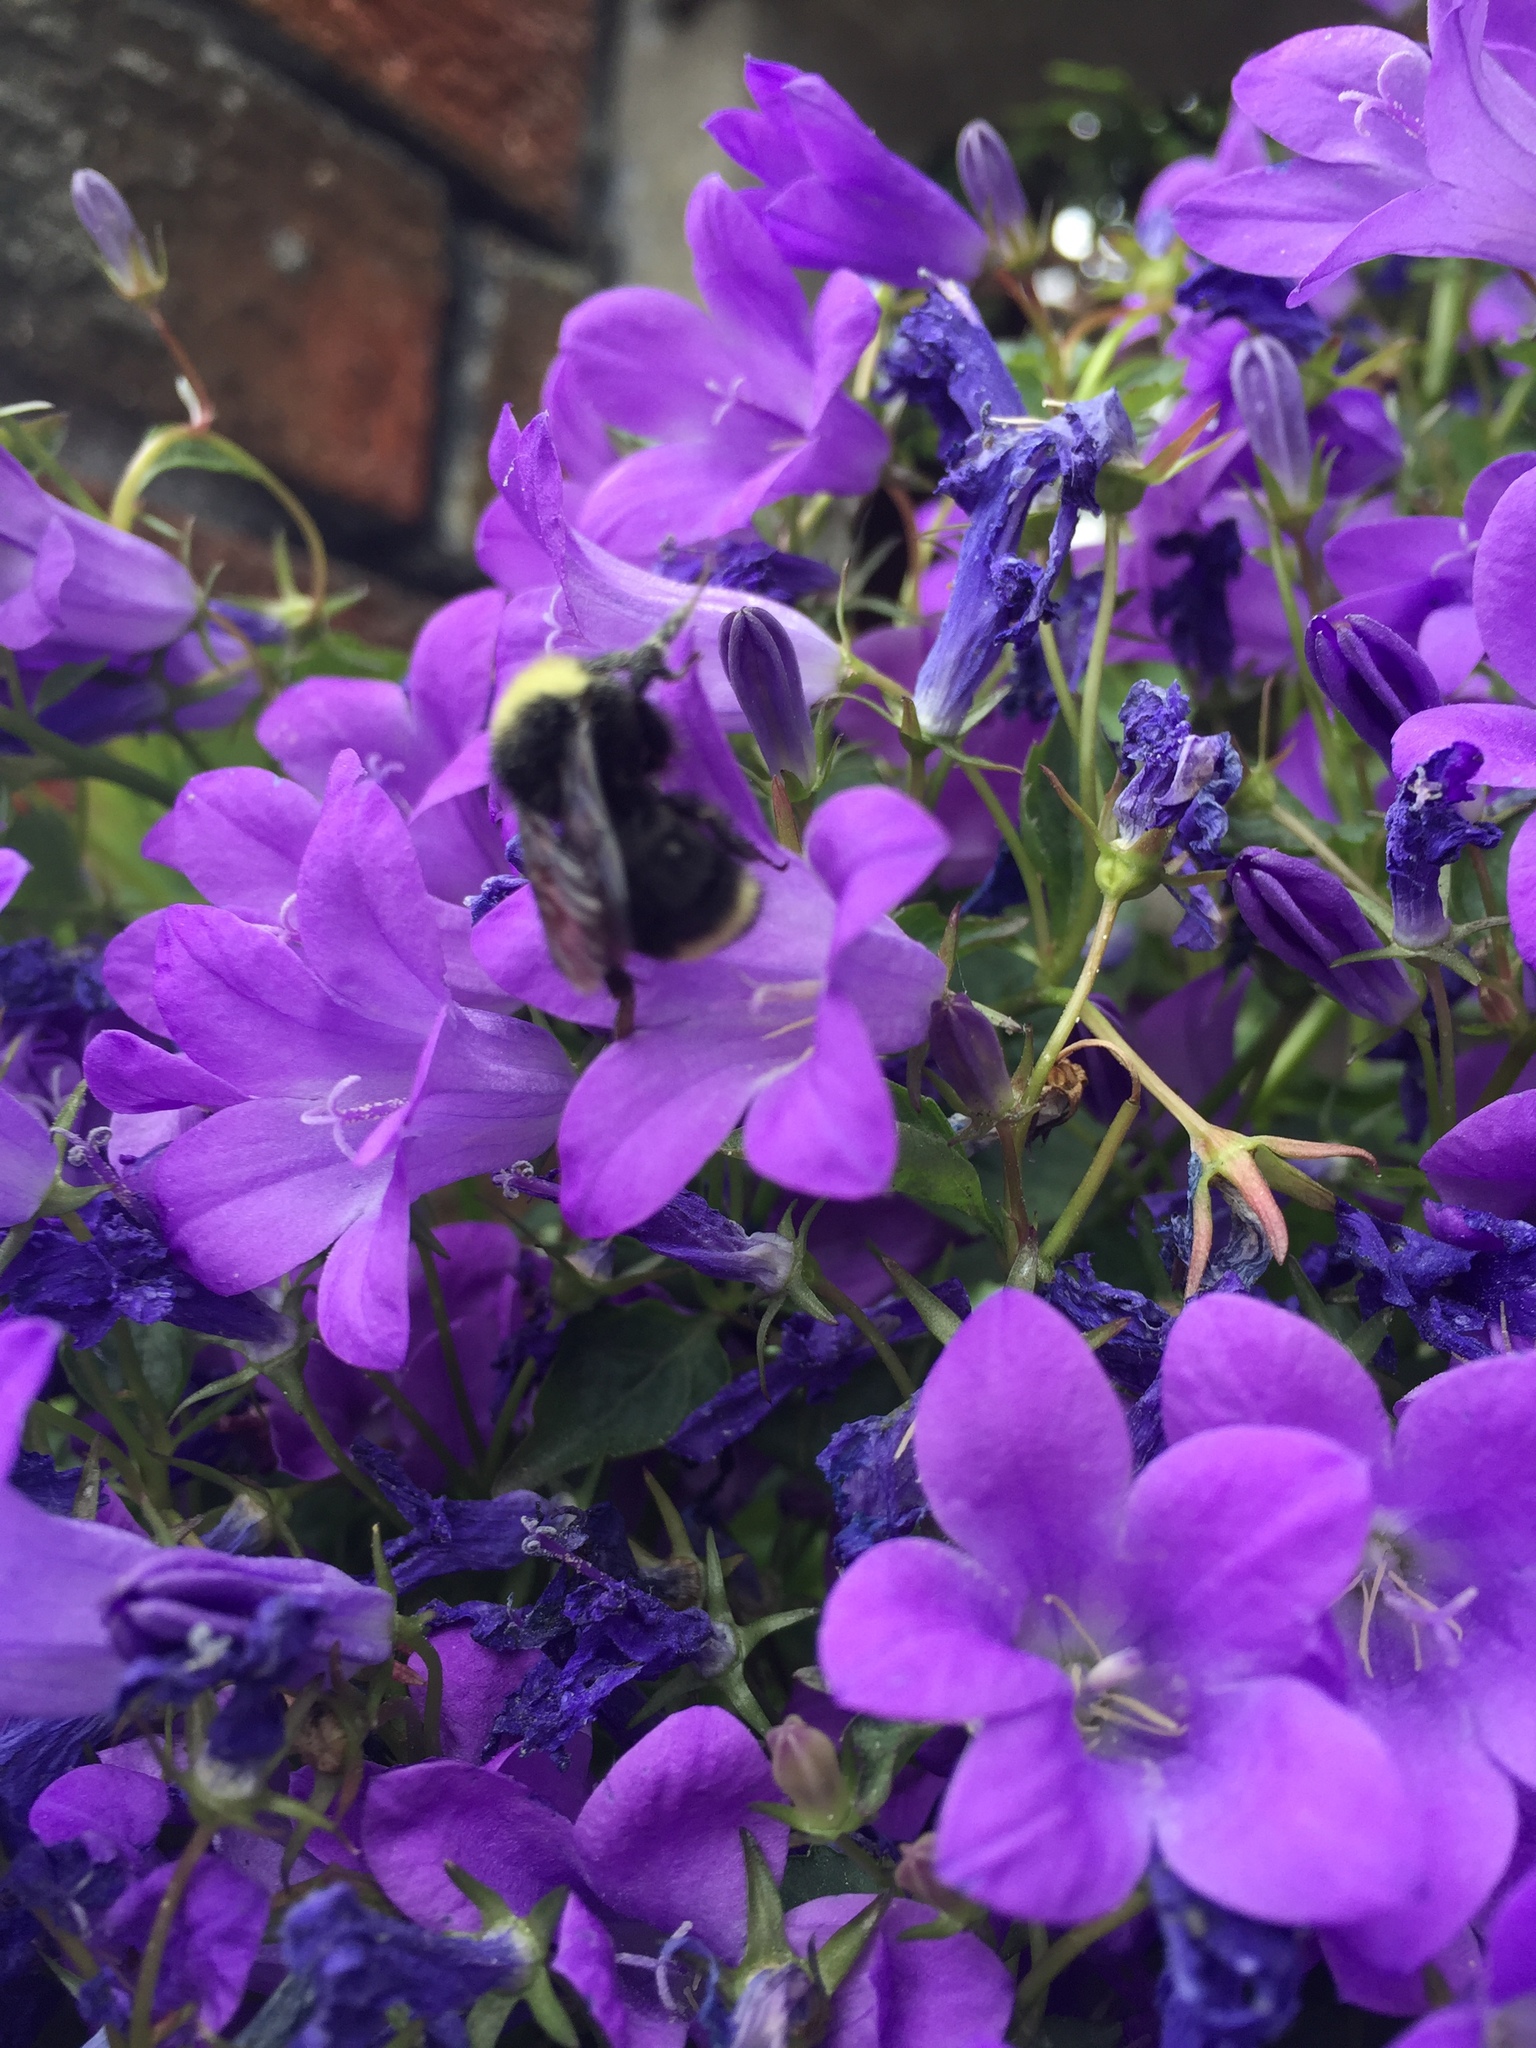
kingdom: Animalia
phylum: Arthropoda
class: Insecta
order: Hymenoptera
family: Apidae
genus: Bombus
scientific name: Bombus vosnesenskii
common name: Vosnesensky bumble bee
